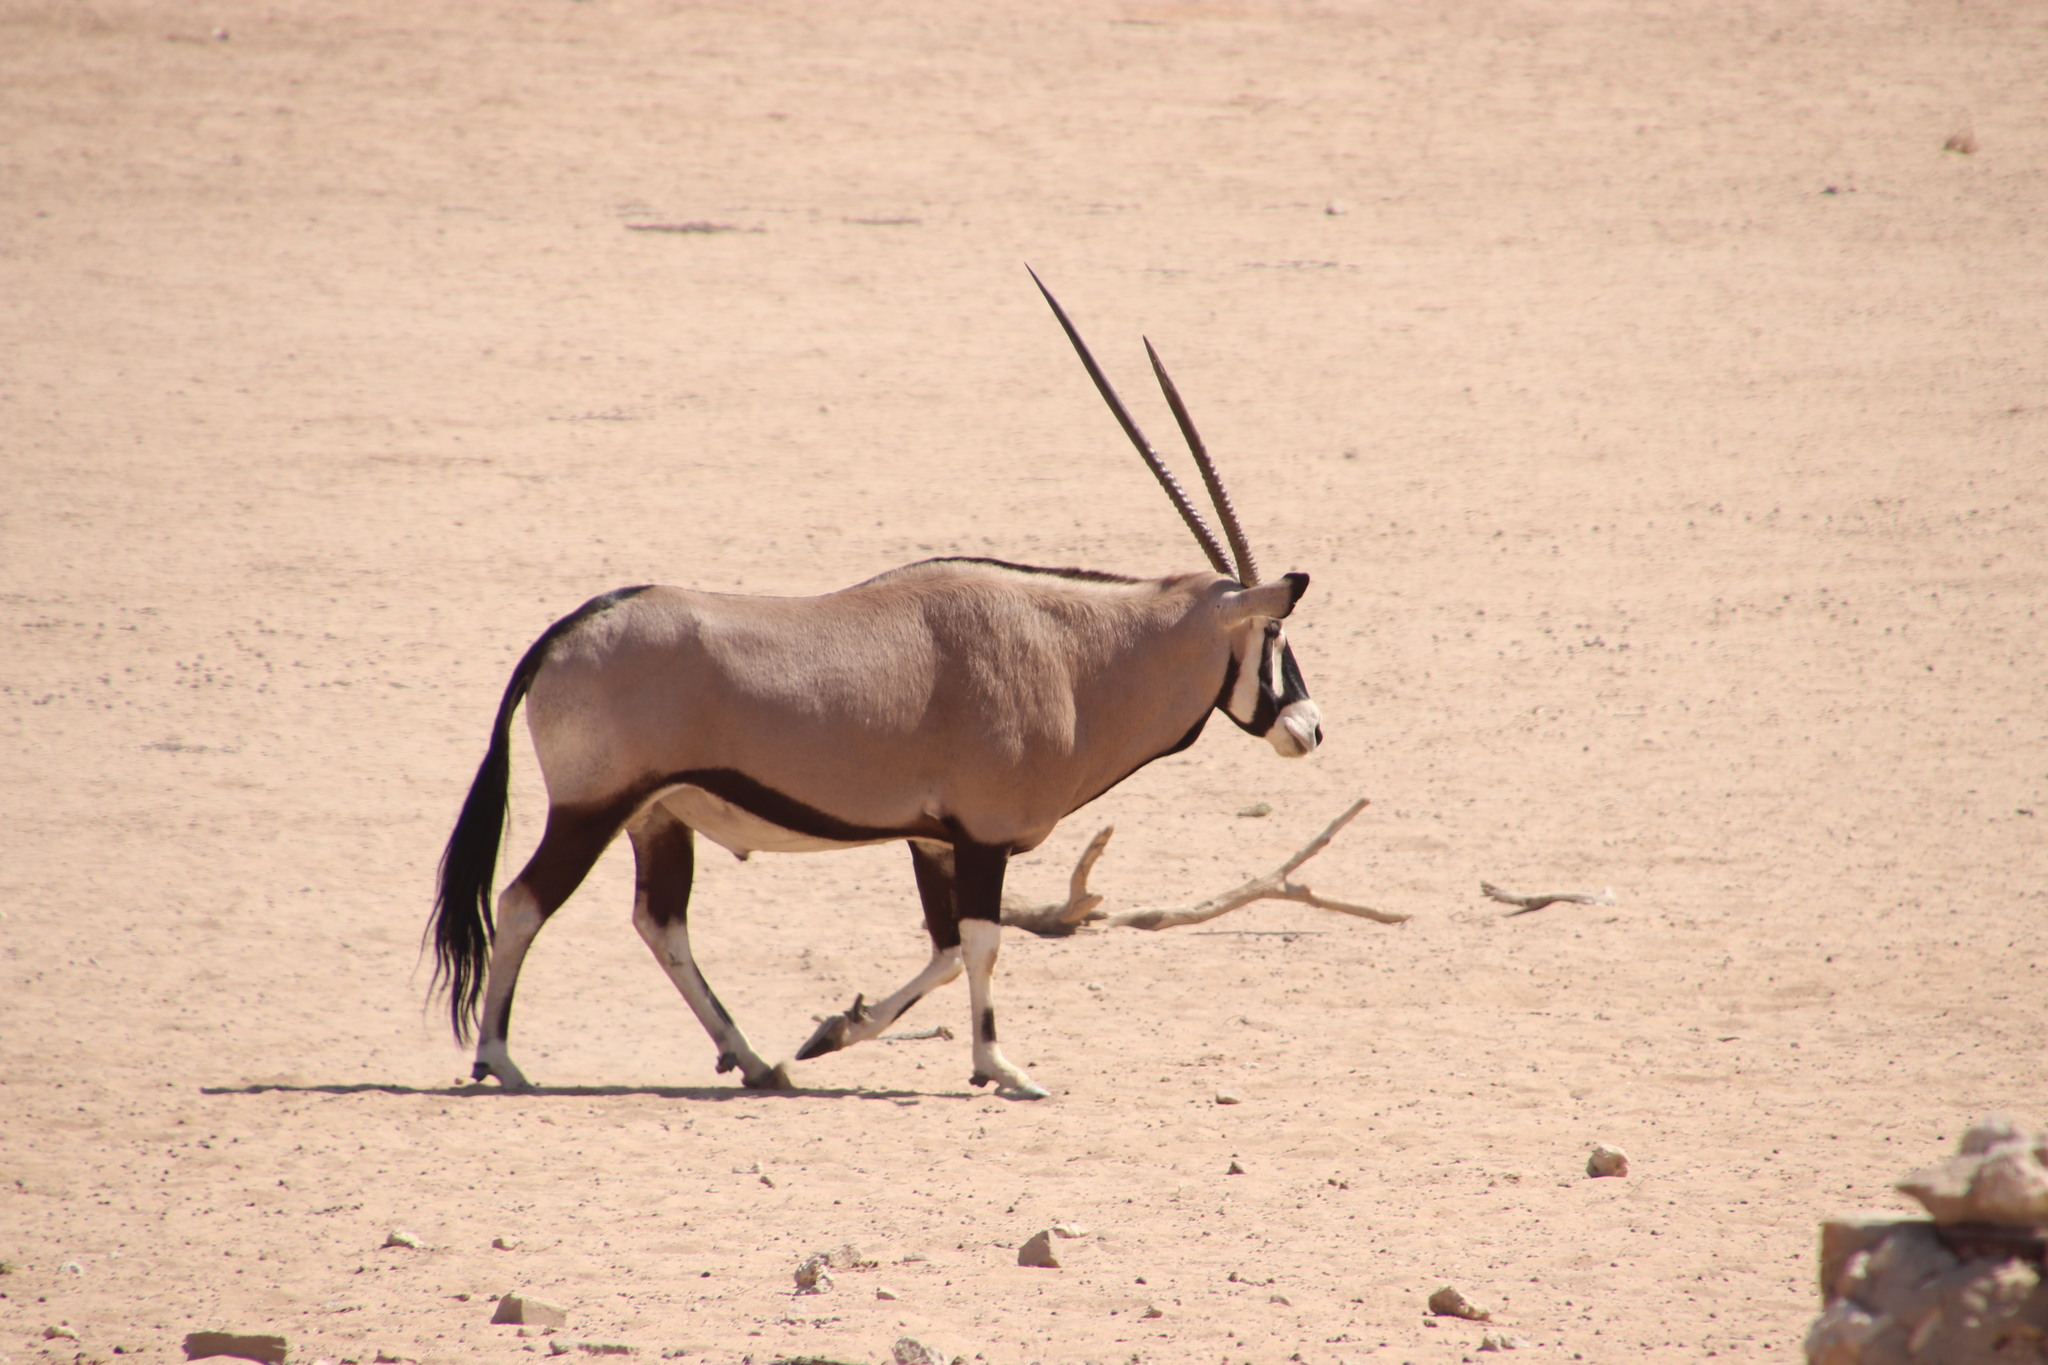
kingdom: Animalia
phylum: Chordata
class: Mammalia
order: Artiodactyla
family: Bovidae
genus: Oryx
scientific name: Oryx gazella
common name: Gemsbok
